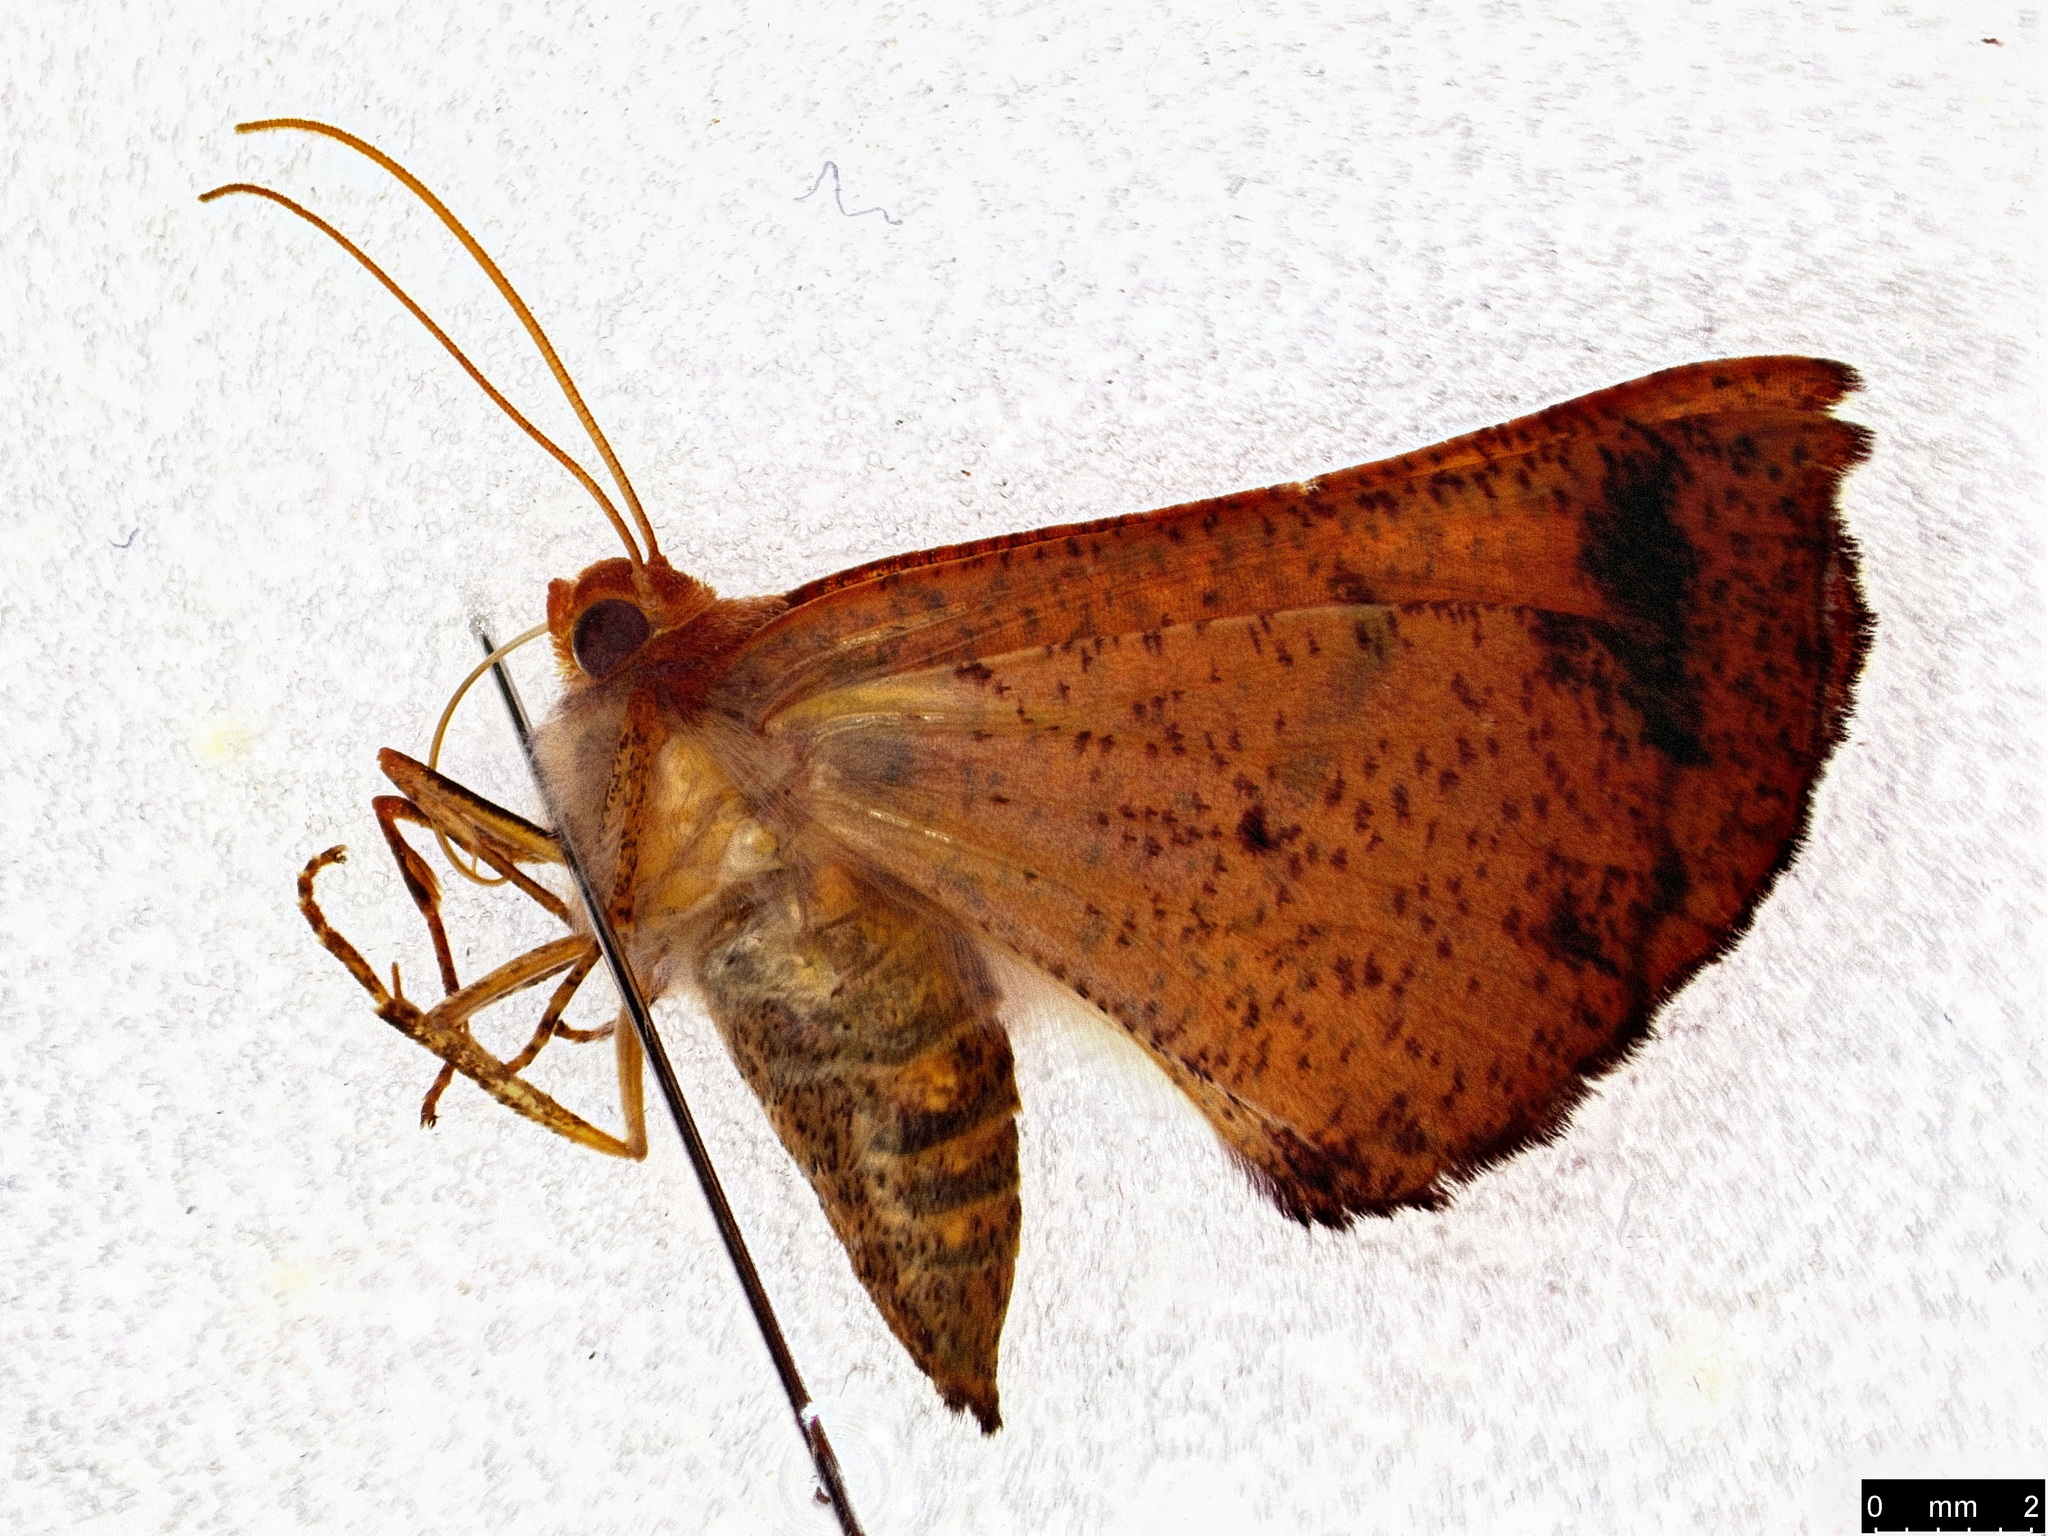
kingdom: Animalia
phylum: Arthropoda
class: Insecta
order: Lepidoptera
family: Geometridae
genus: Mnesampela
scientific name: Mnesampela privata
